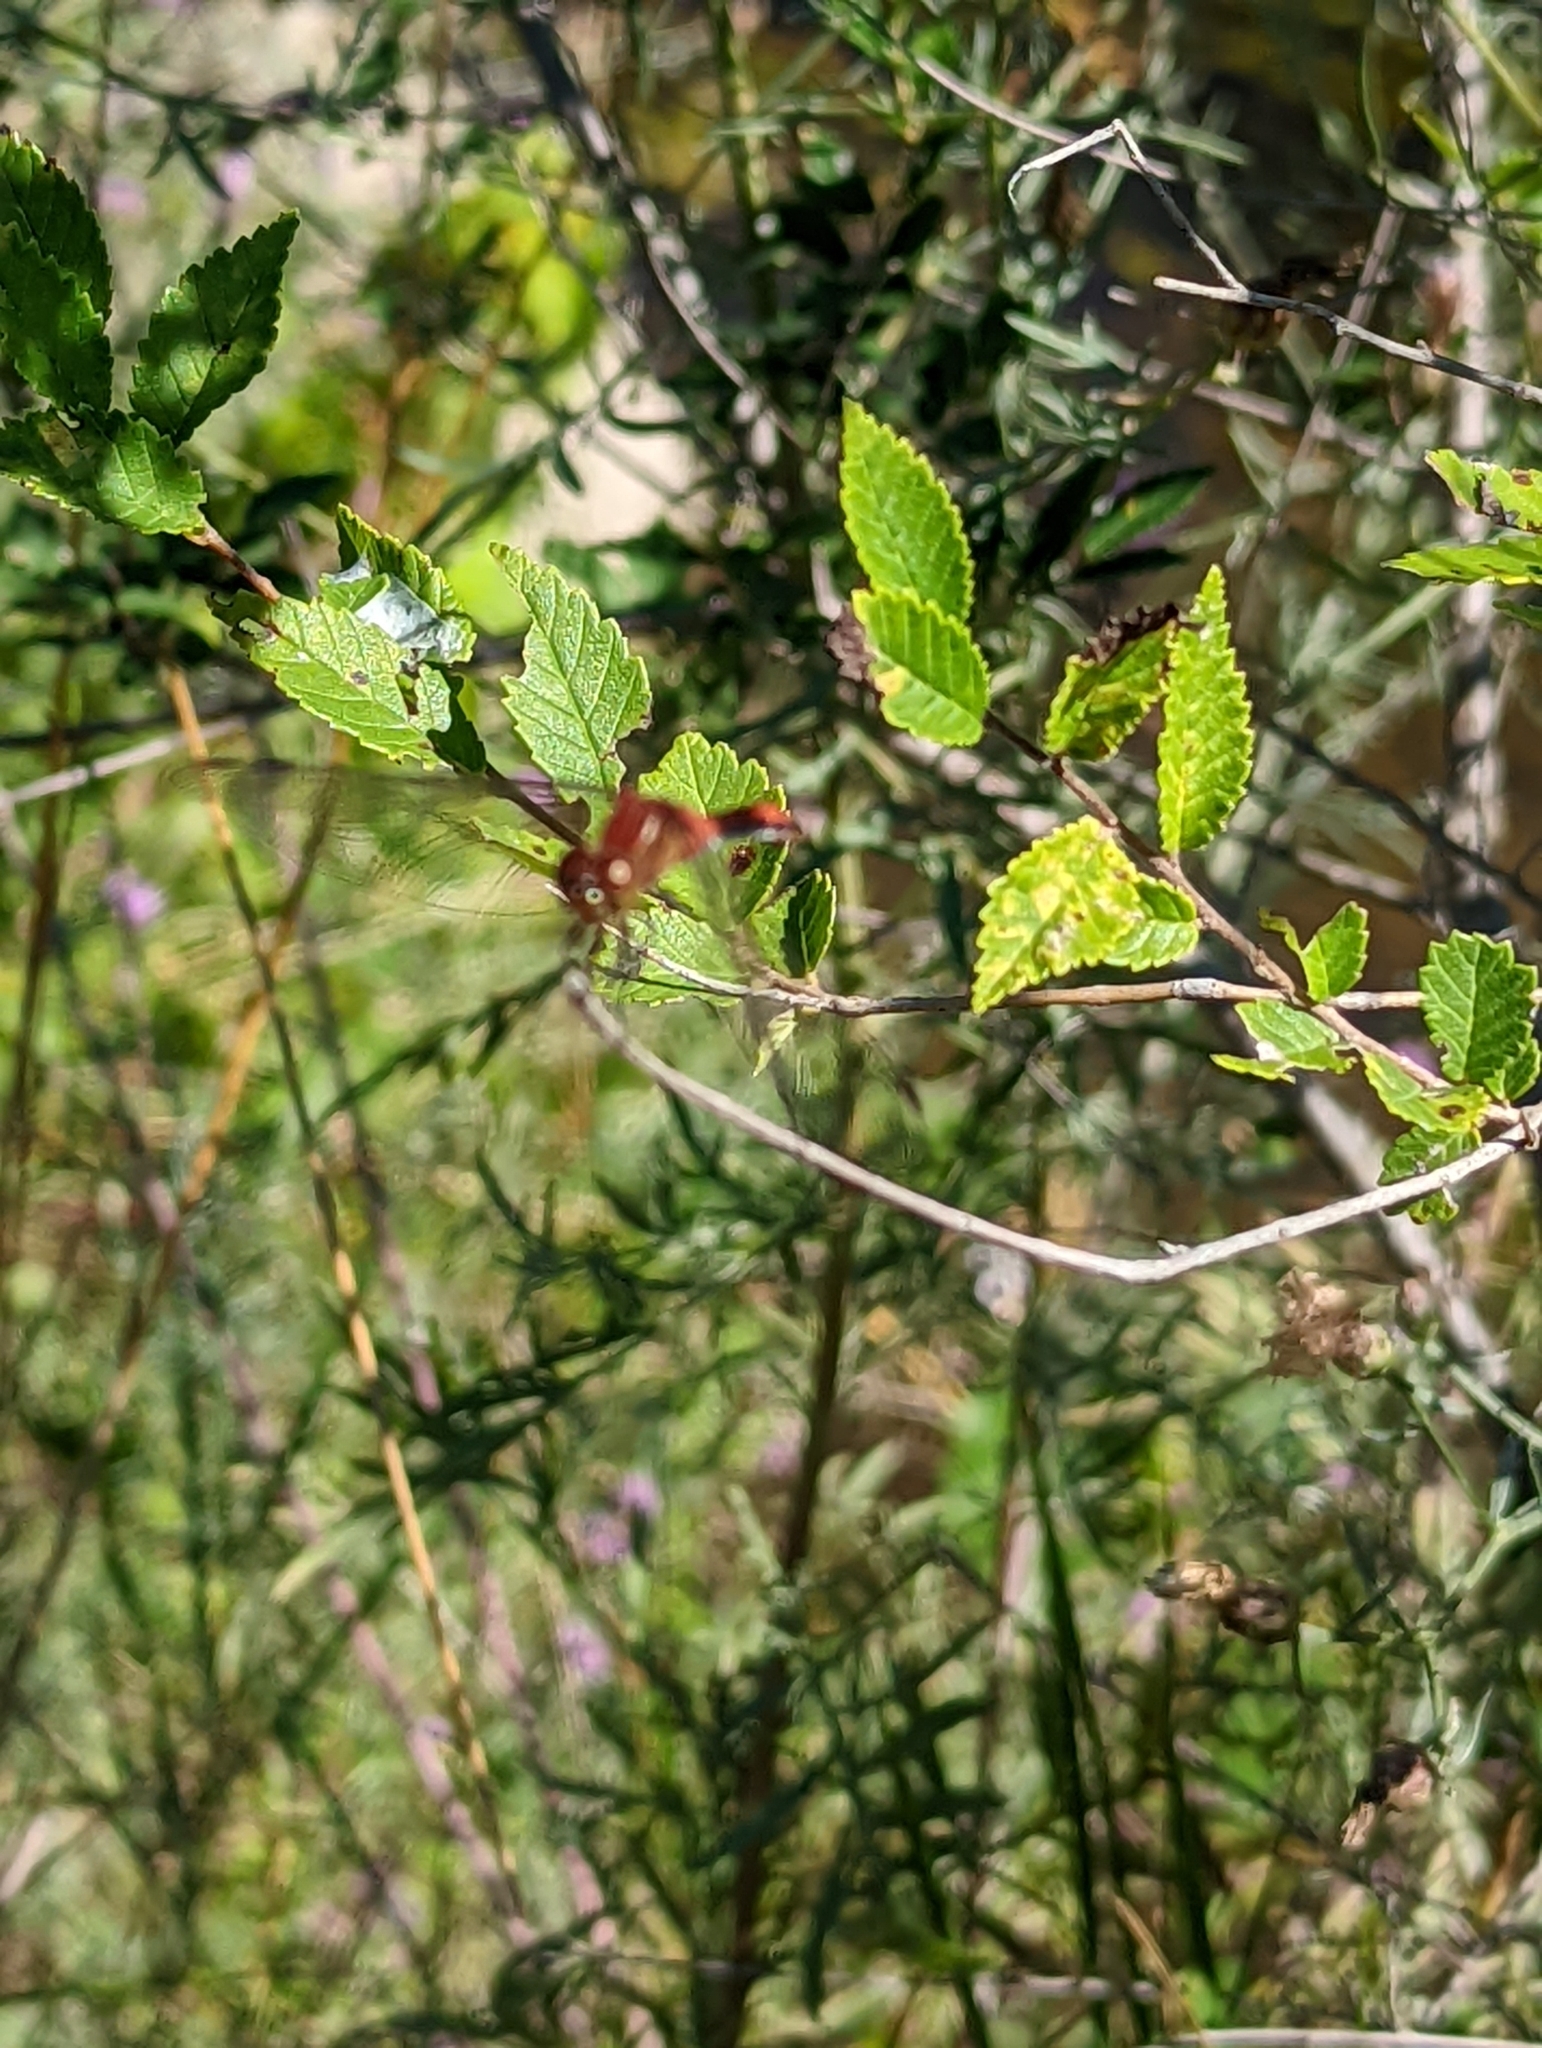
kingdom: Animalia
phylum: Arthropoda
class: Insecta
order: Odonata
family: Libellulidae
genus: Sympetrum
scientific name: Sympetrum
